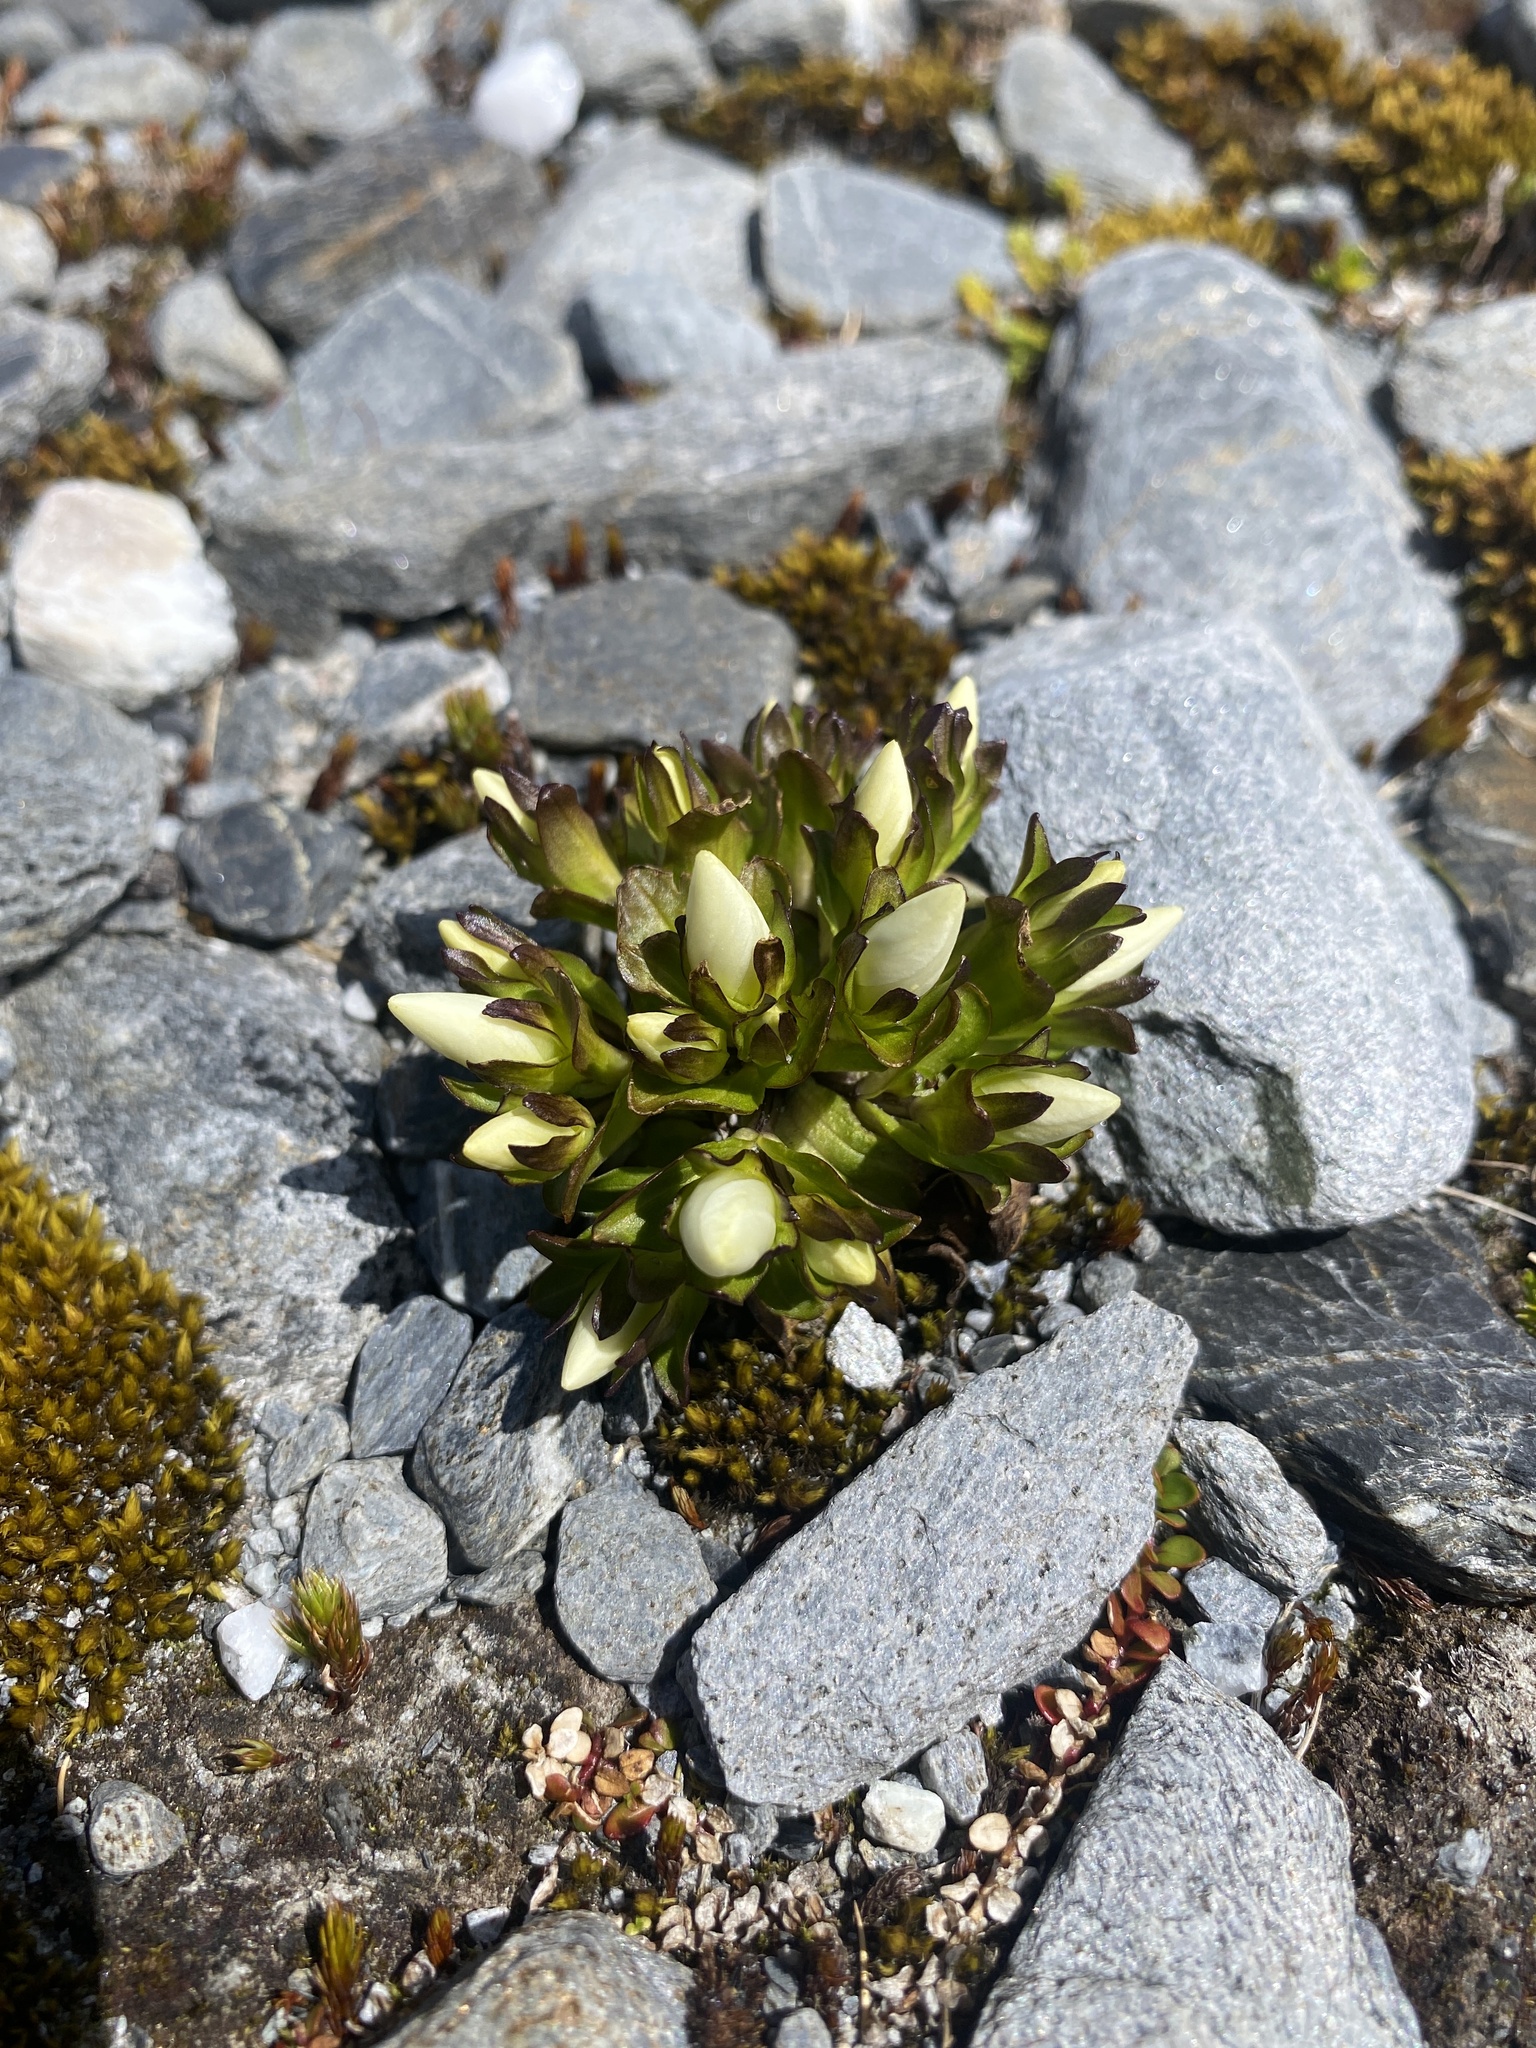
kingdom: Plantae
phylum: Tracheophyta
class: Magnoliopsida
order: Gentianales
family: Gentianaceae
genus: Gentianella
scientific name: Gentianella divisa
